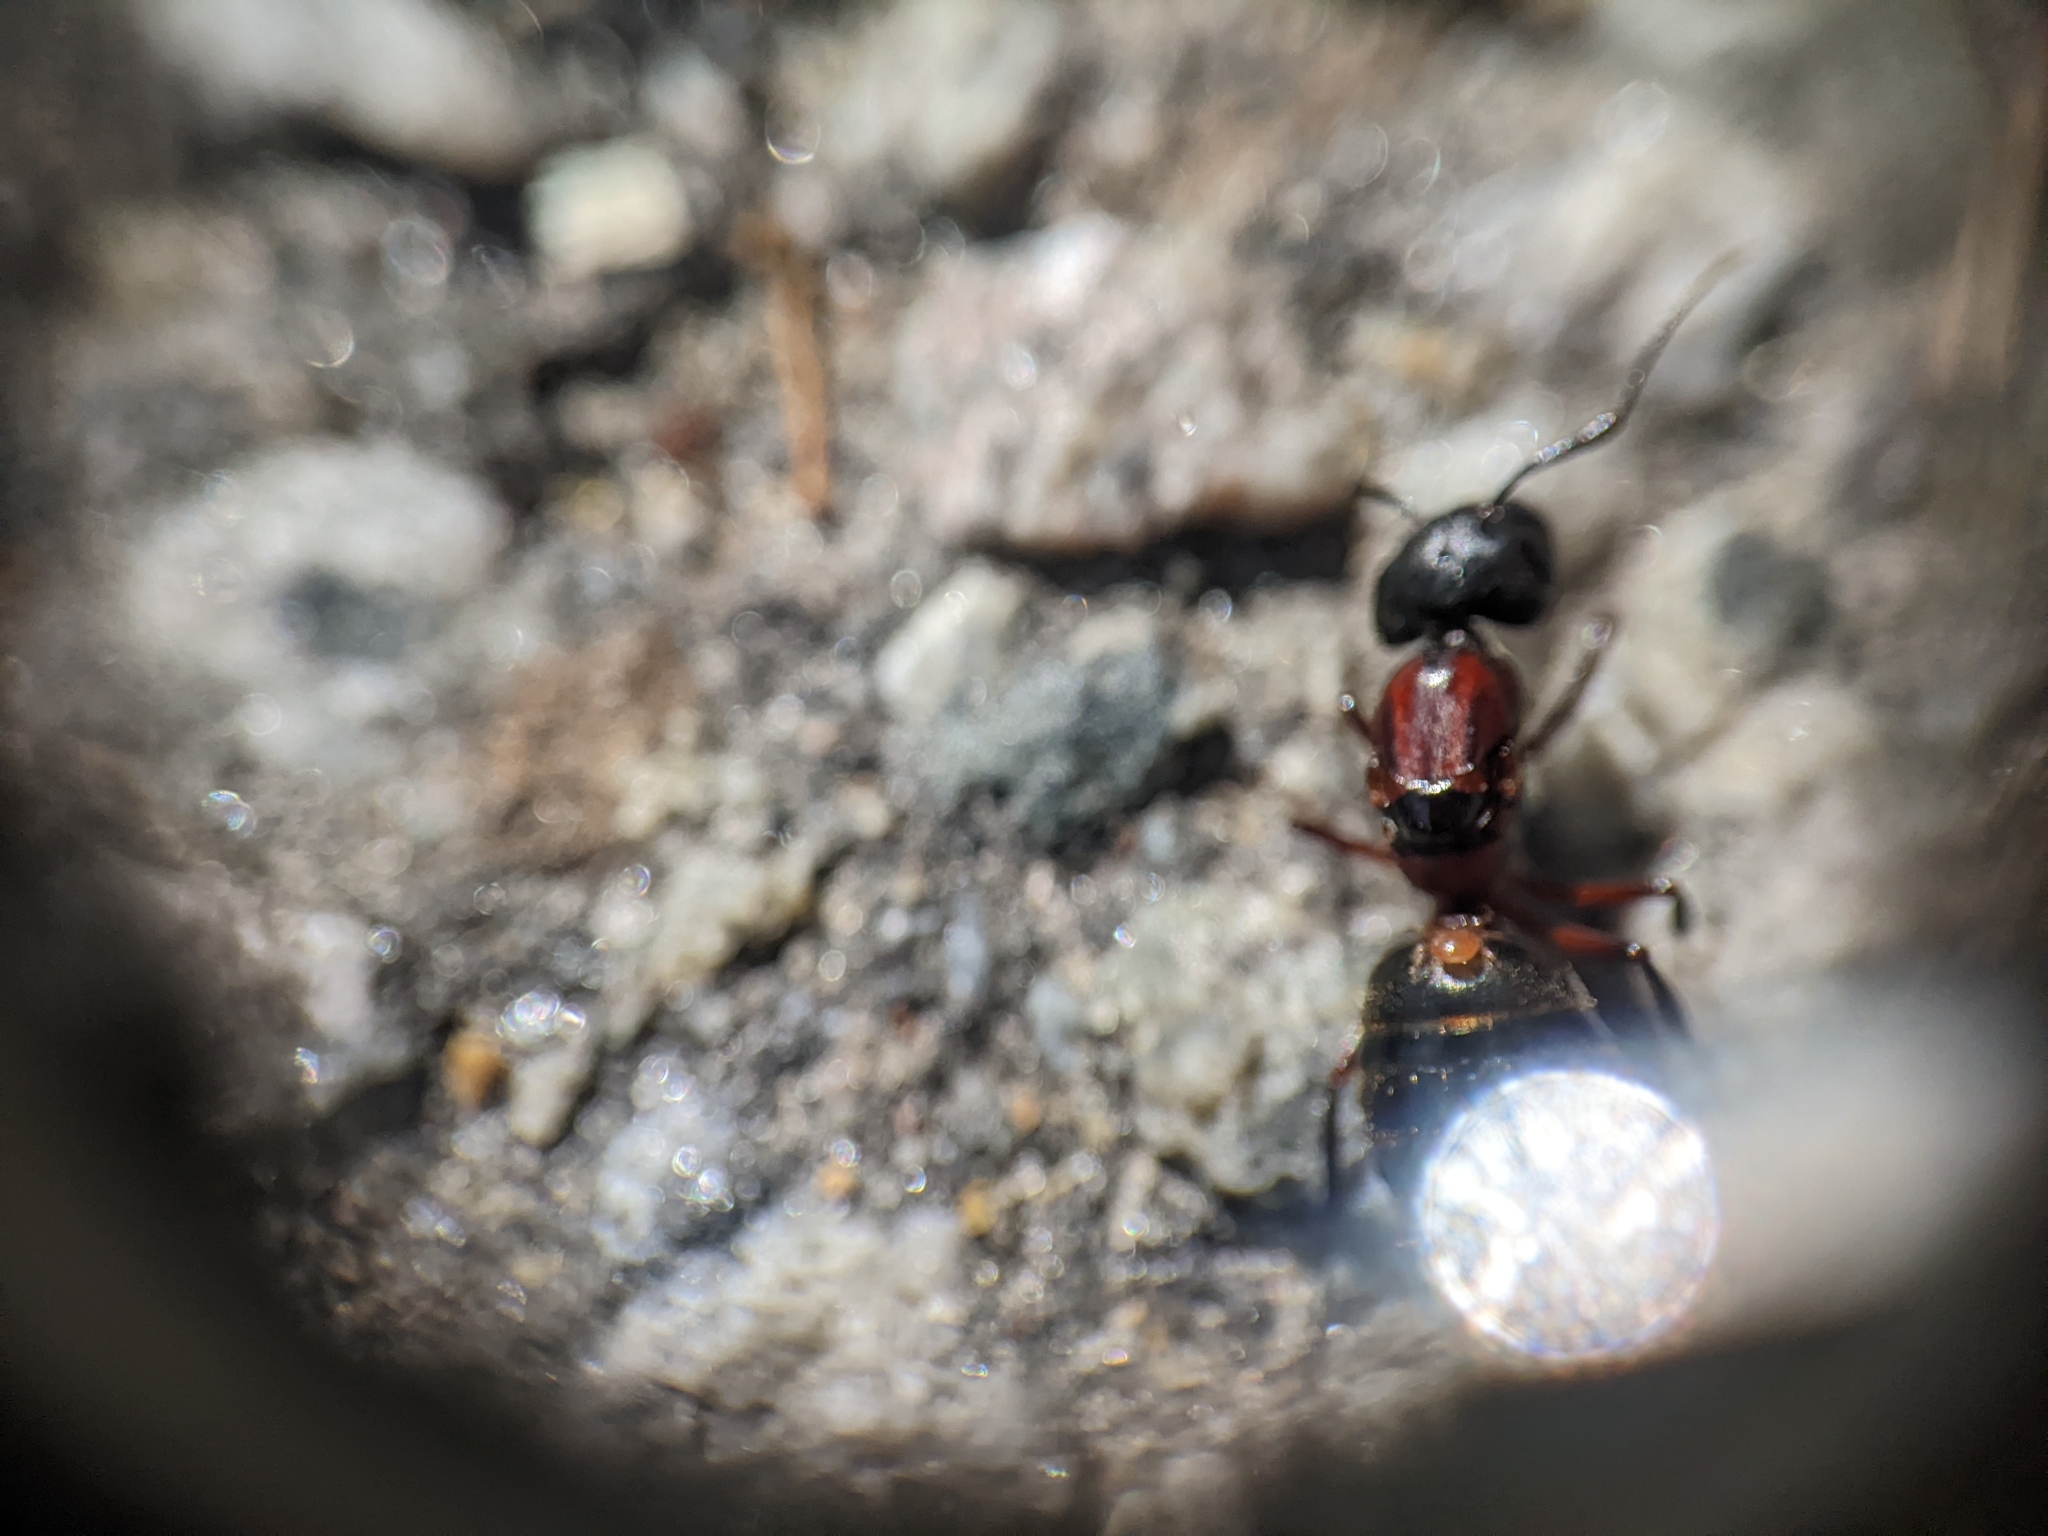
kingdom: Animalia
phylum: Arthropoda
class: Insecta
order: Hymenoptera
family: Formicidae
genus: Camponotus
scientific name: Camponotus novaeboracensis
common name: New york carpenter ant
